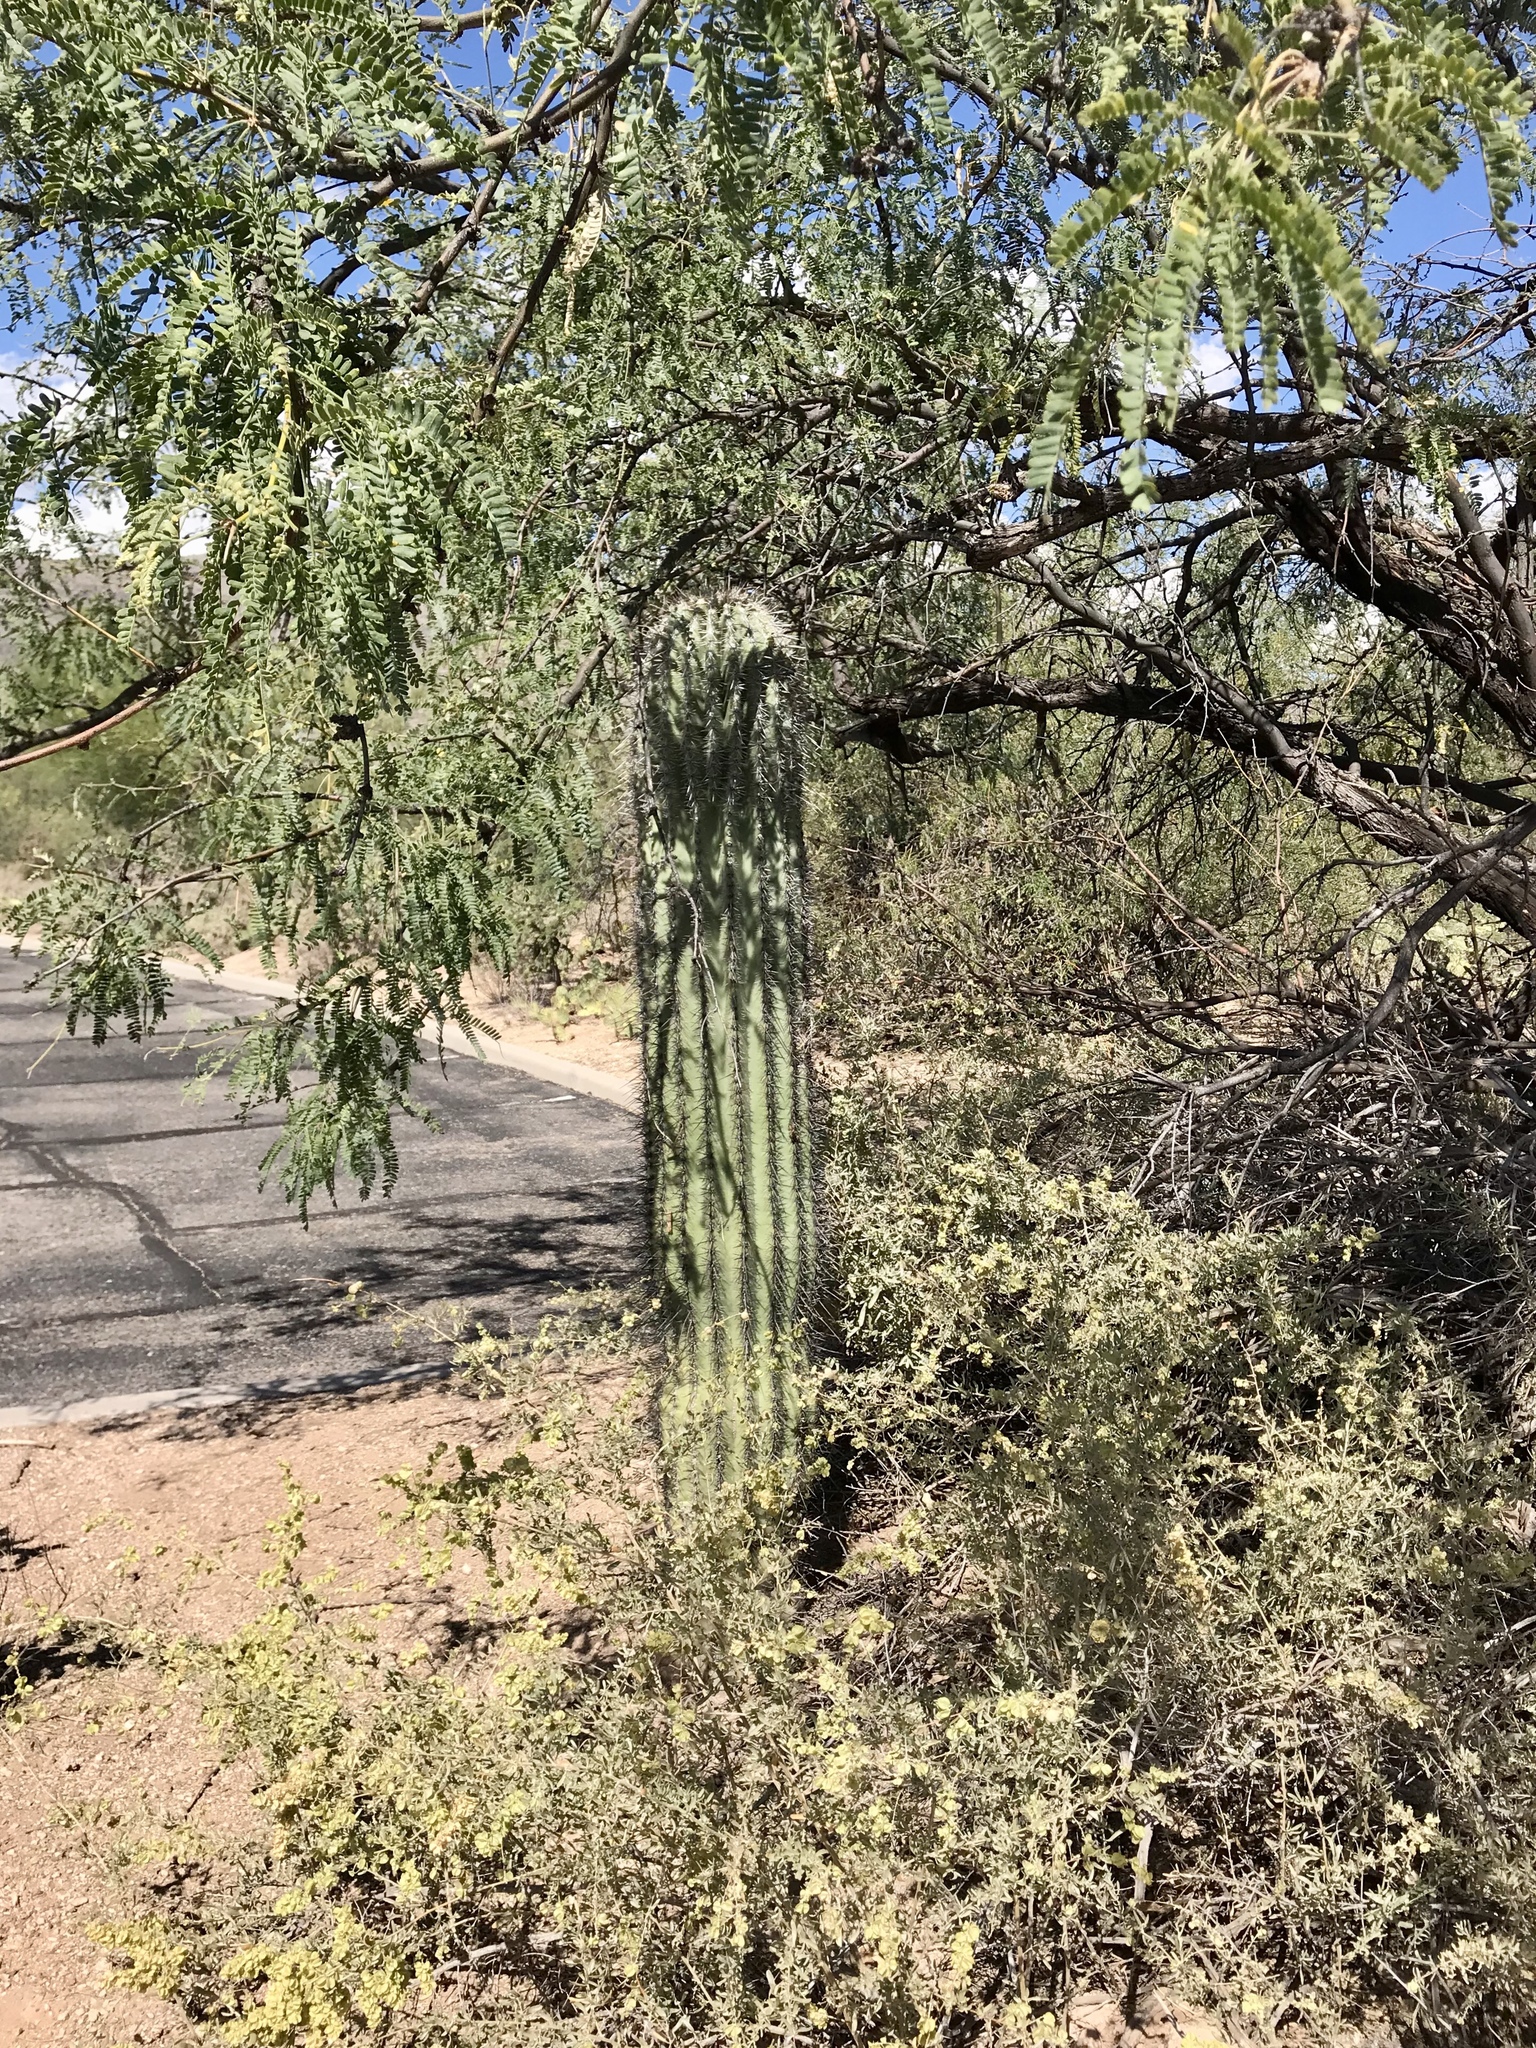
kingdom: Plantae
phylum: Tracheophyta
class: Magnoliopsida
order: Caryophyllales
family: Cactaceae
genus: Carnegiea
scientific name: Carnegiea gigantea
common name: Saguaro
